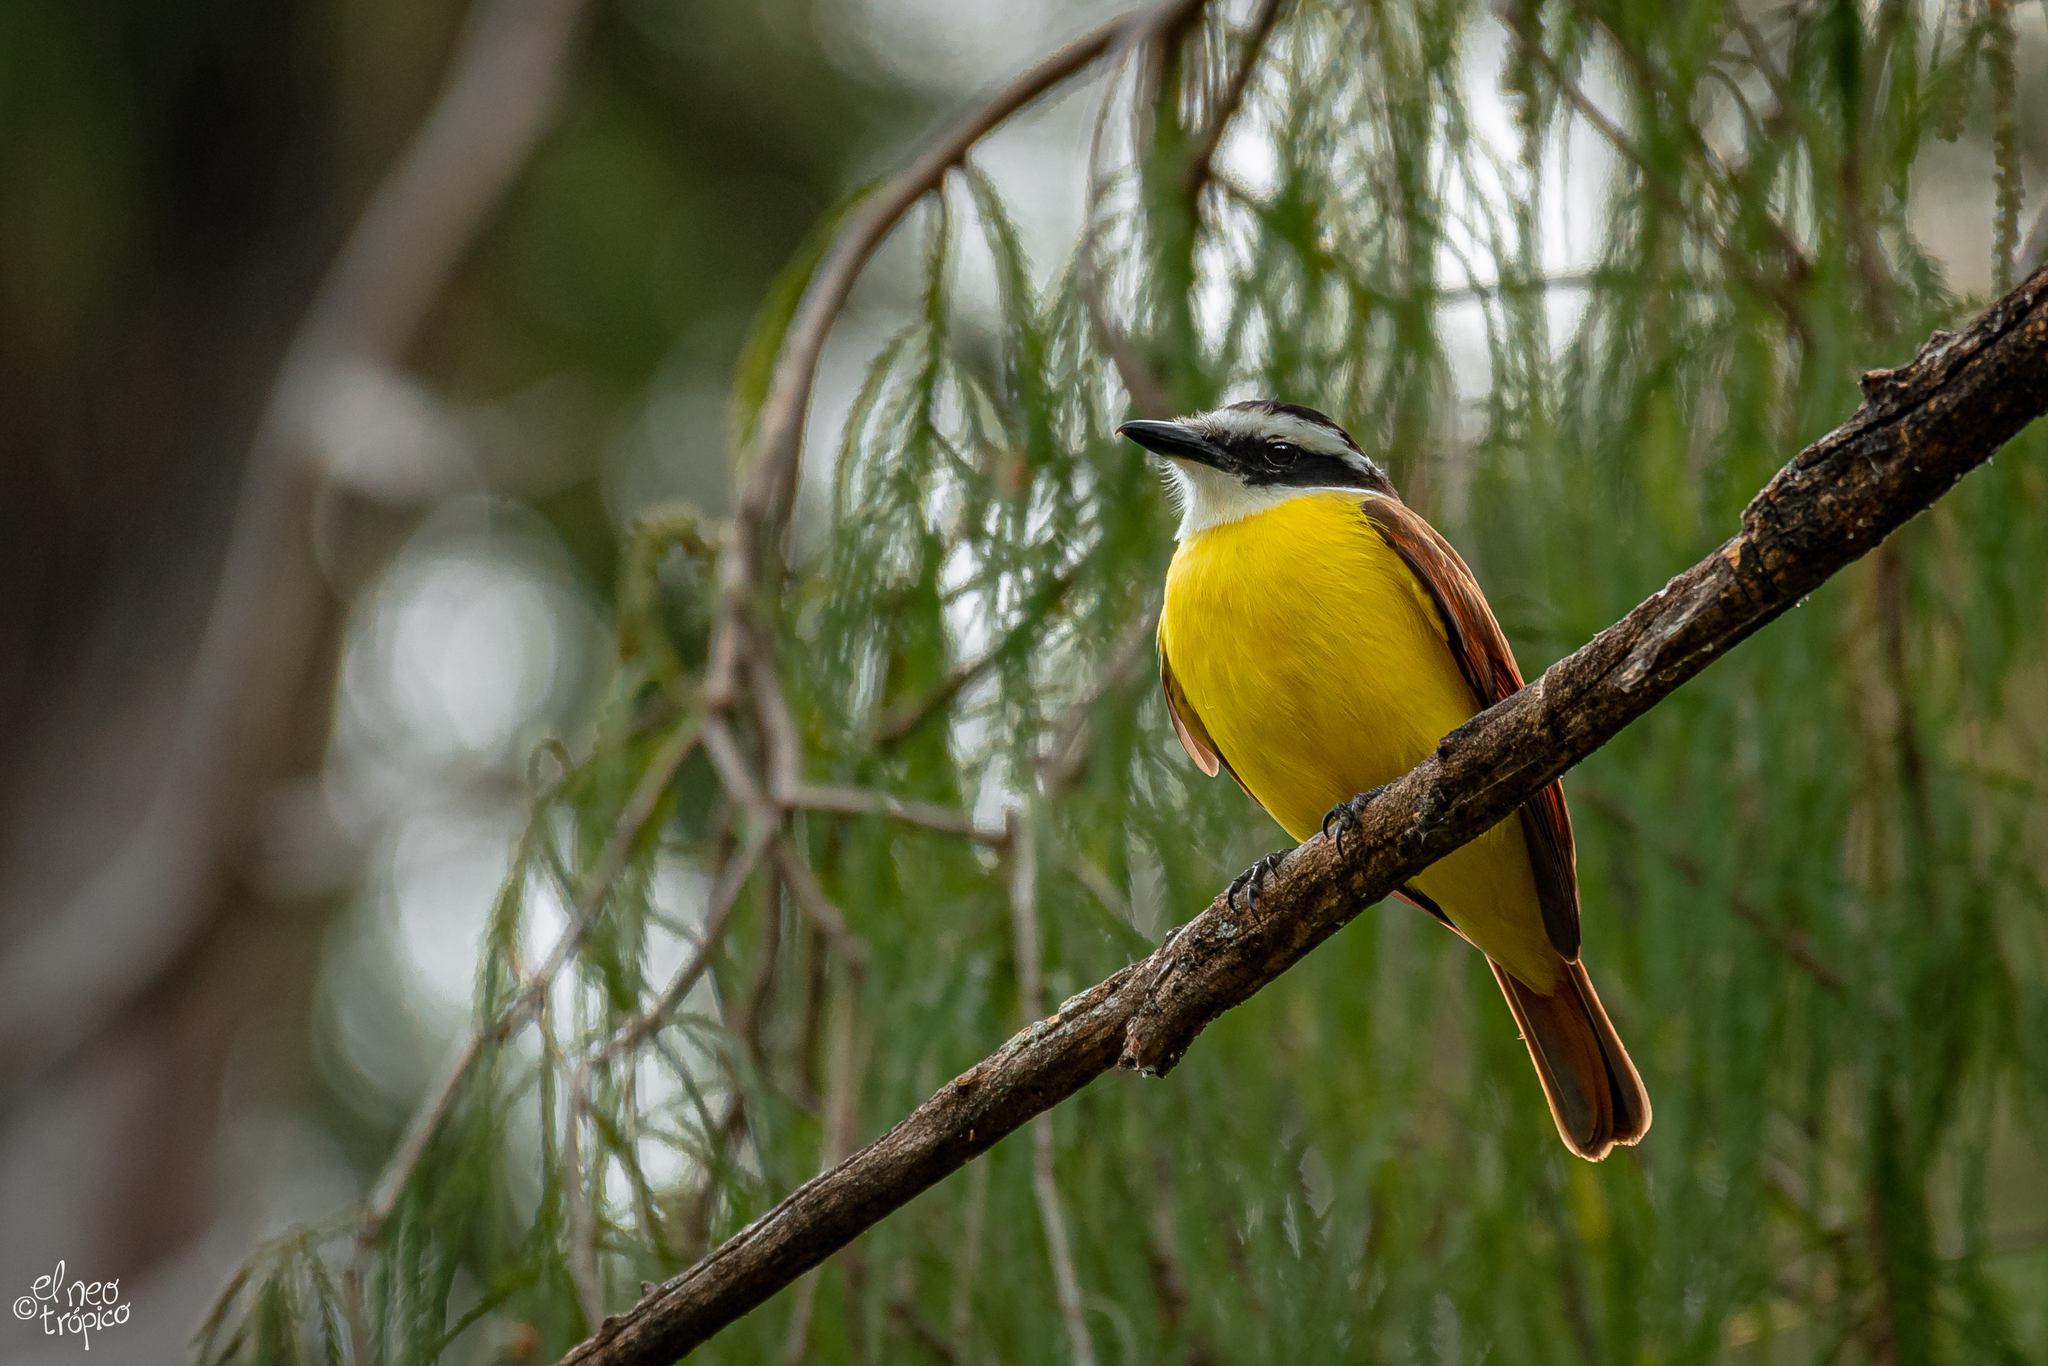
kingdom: Animalia
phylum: Chordata
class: Aves
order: Passeriformes
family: Tyrannidae
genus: Pitangus
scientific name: Pitangus sulphuratus
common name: Great kiskadee
